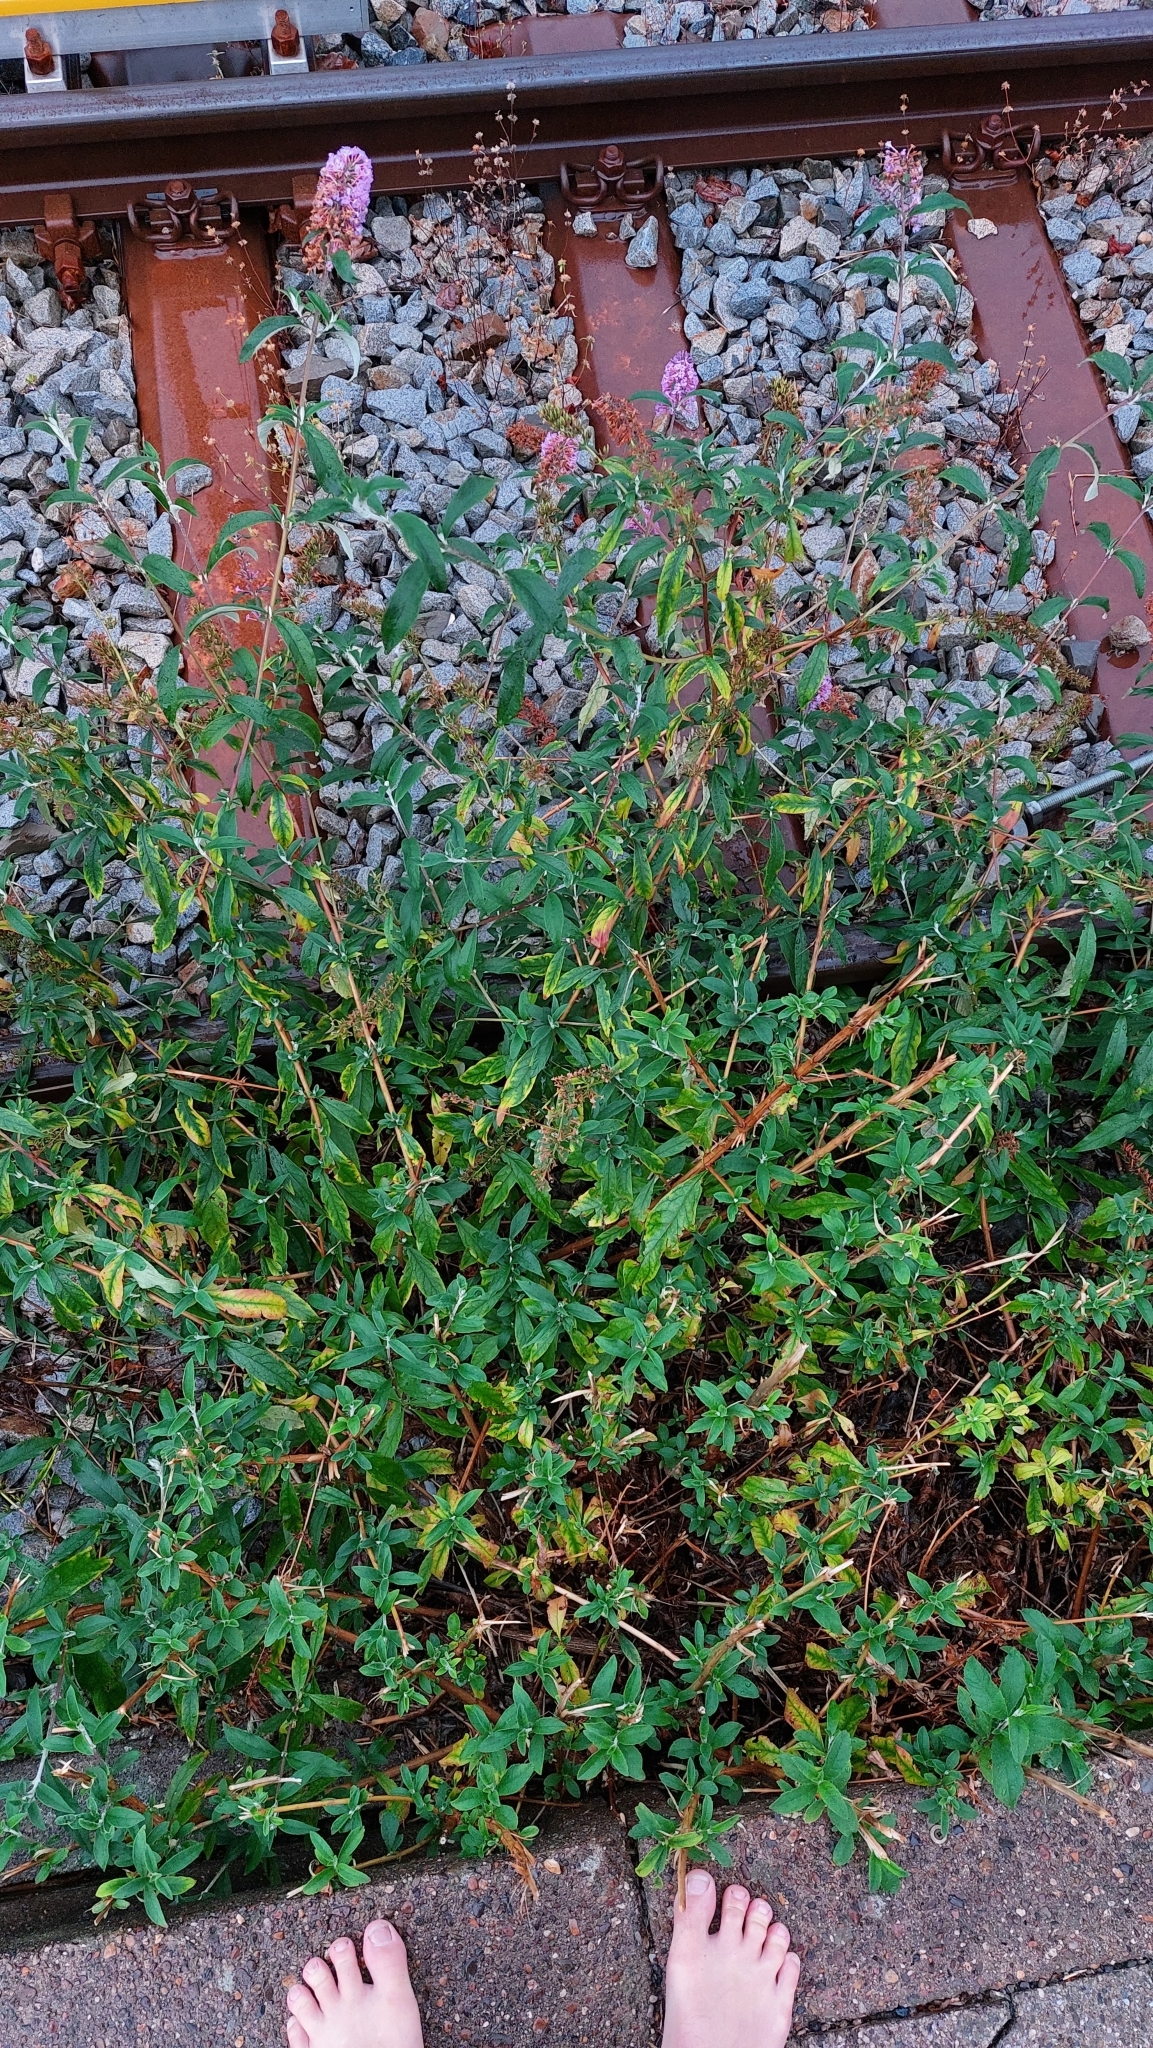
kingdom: Plantae
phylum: Tracheophyta
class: Magnoliopsida
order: Lamiales
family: Scrophulariaceae
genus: Buddleja
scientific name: Buddleja davidii
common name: Butterfly-bush
